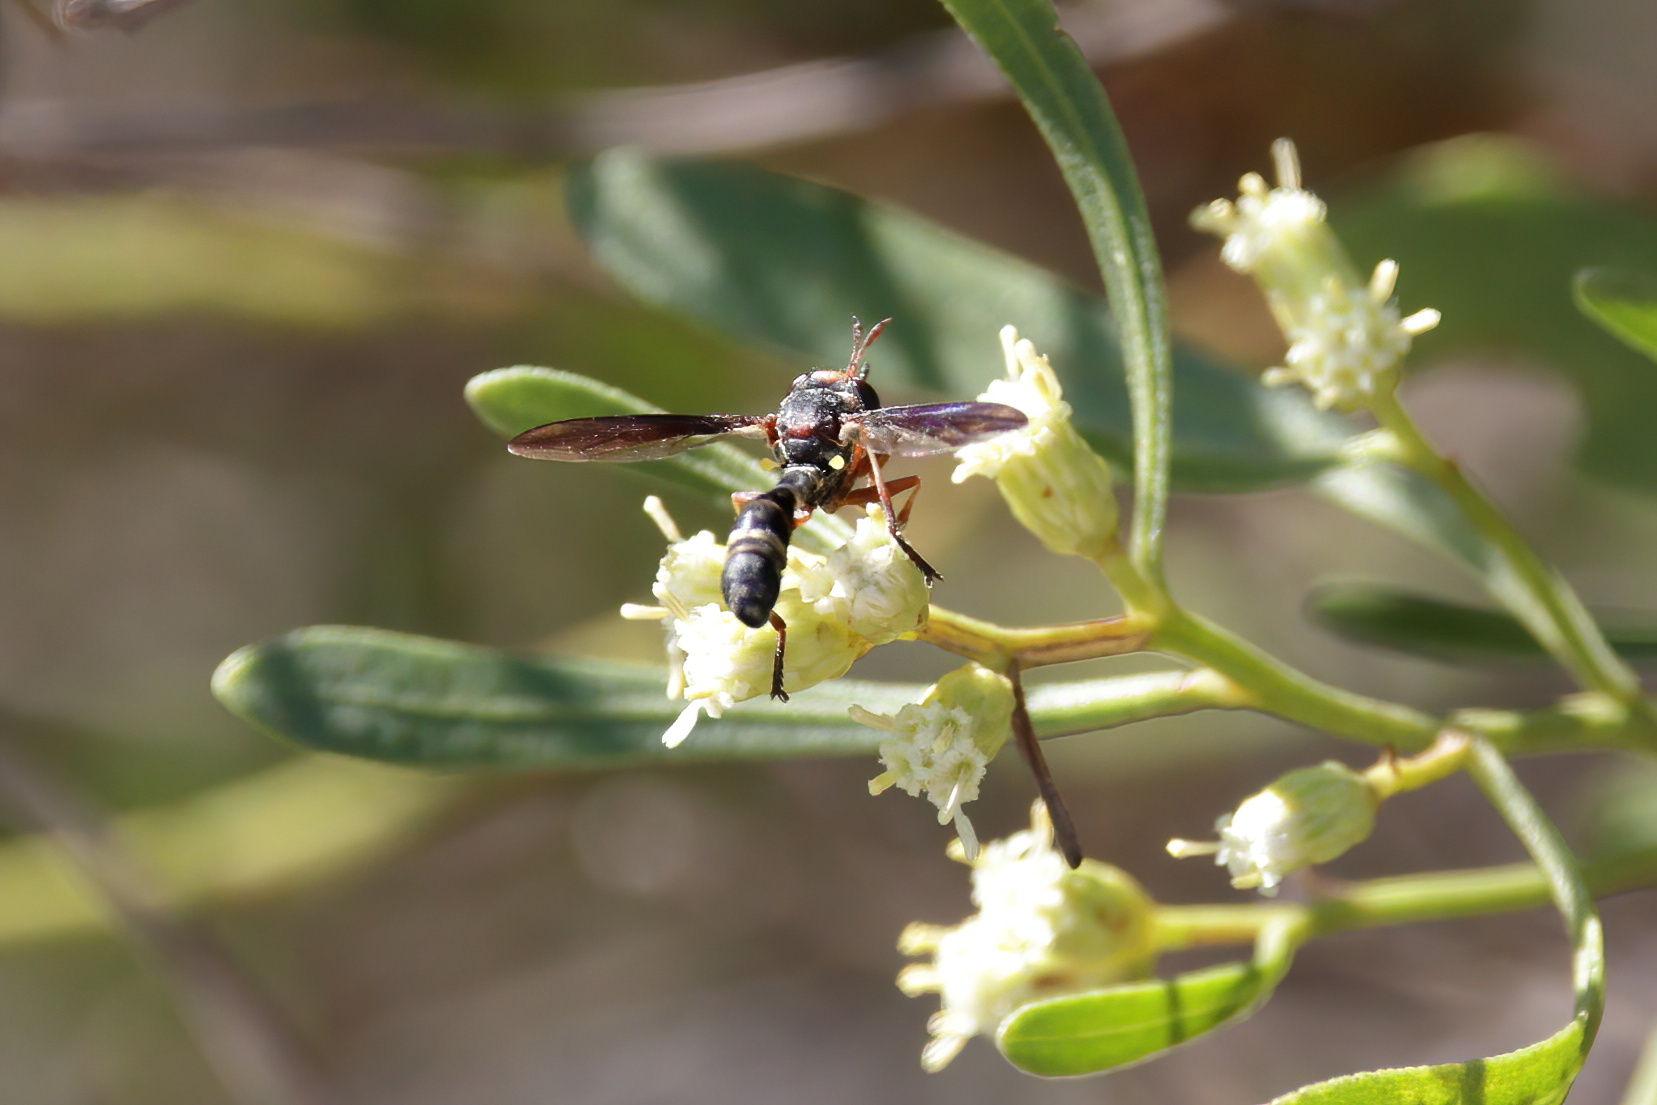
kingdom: Animalia
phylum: Arthropoda
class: Insecta
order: Diptera
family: Conopidae
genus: Physocephala
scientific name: Physocephala marginata
